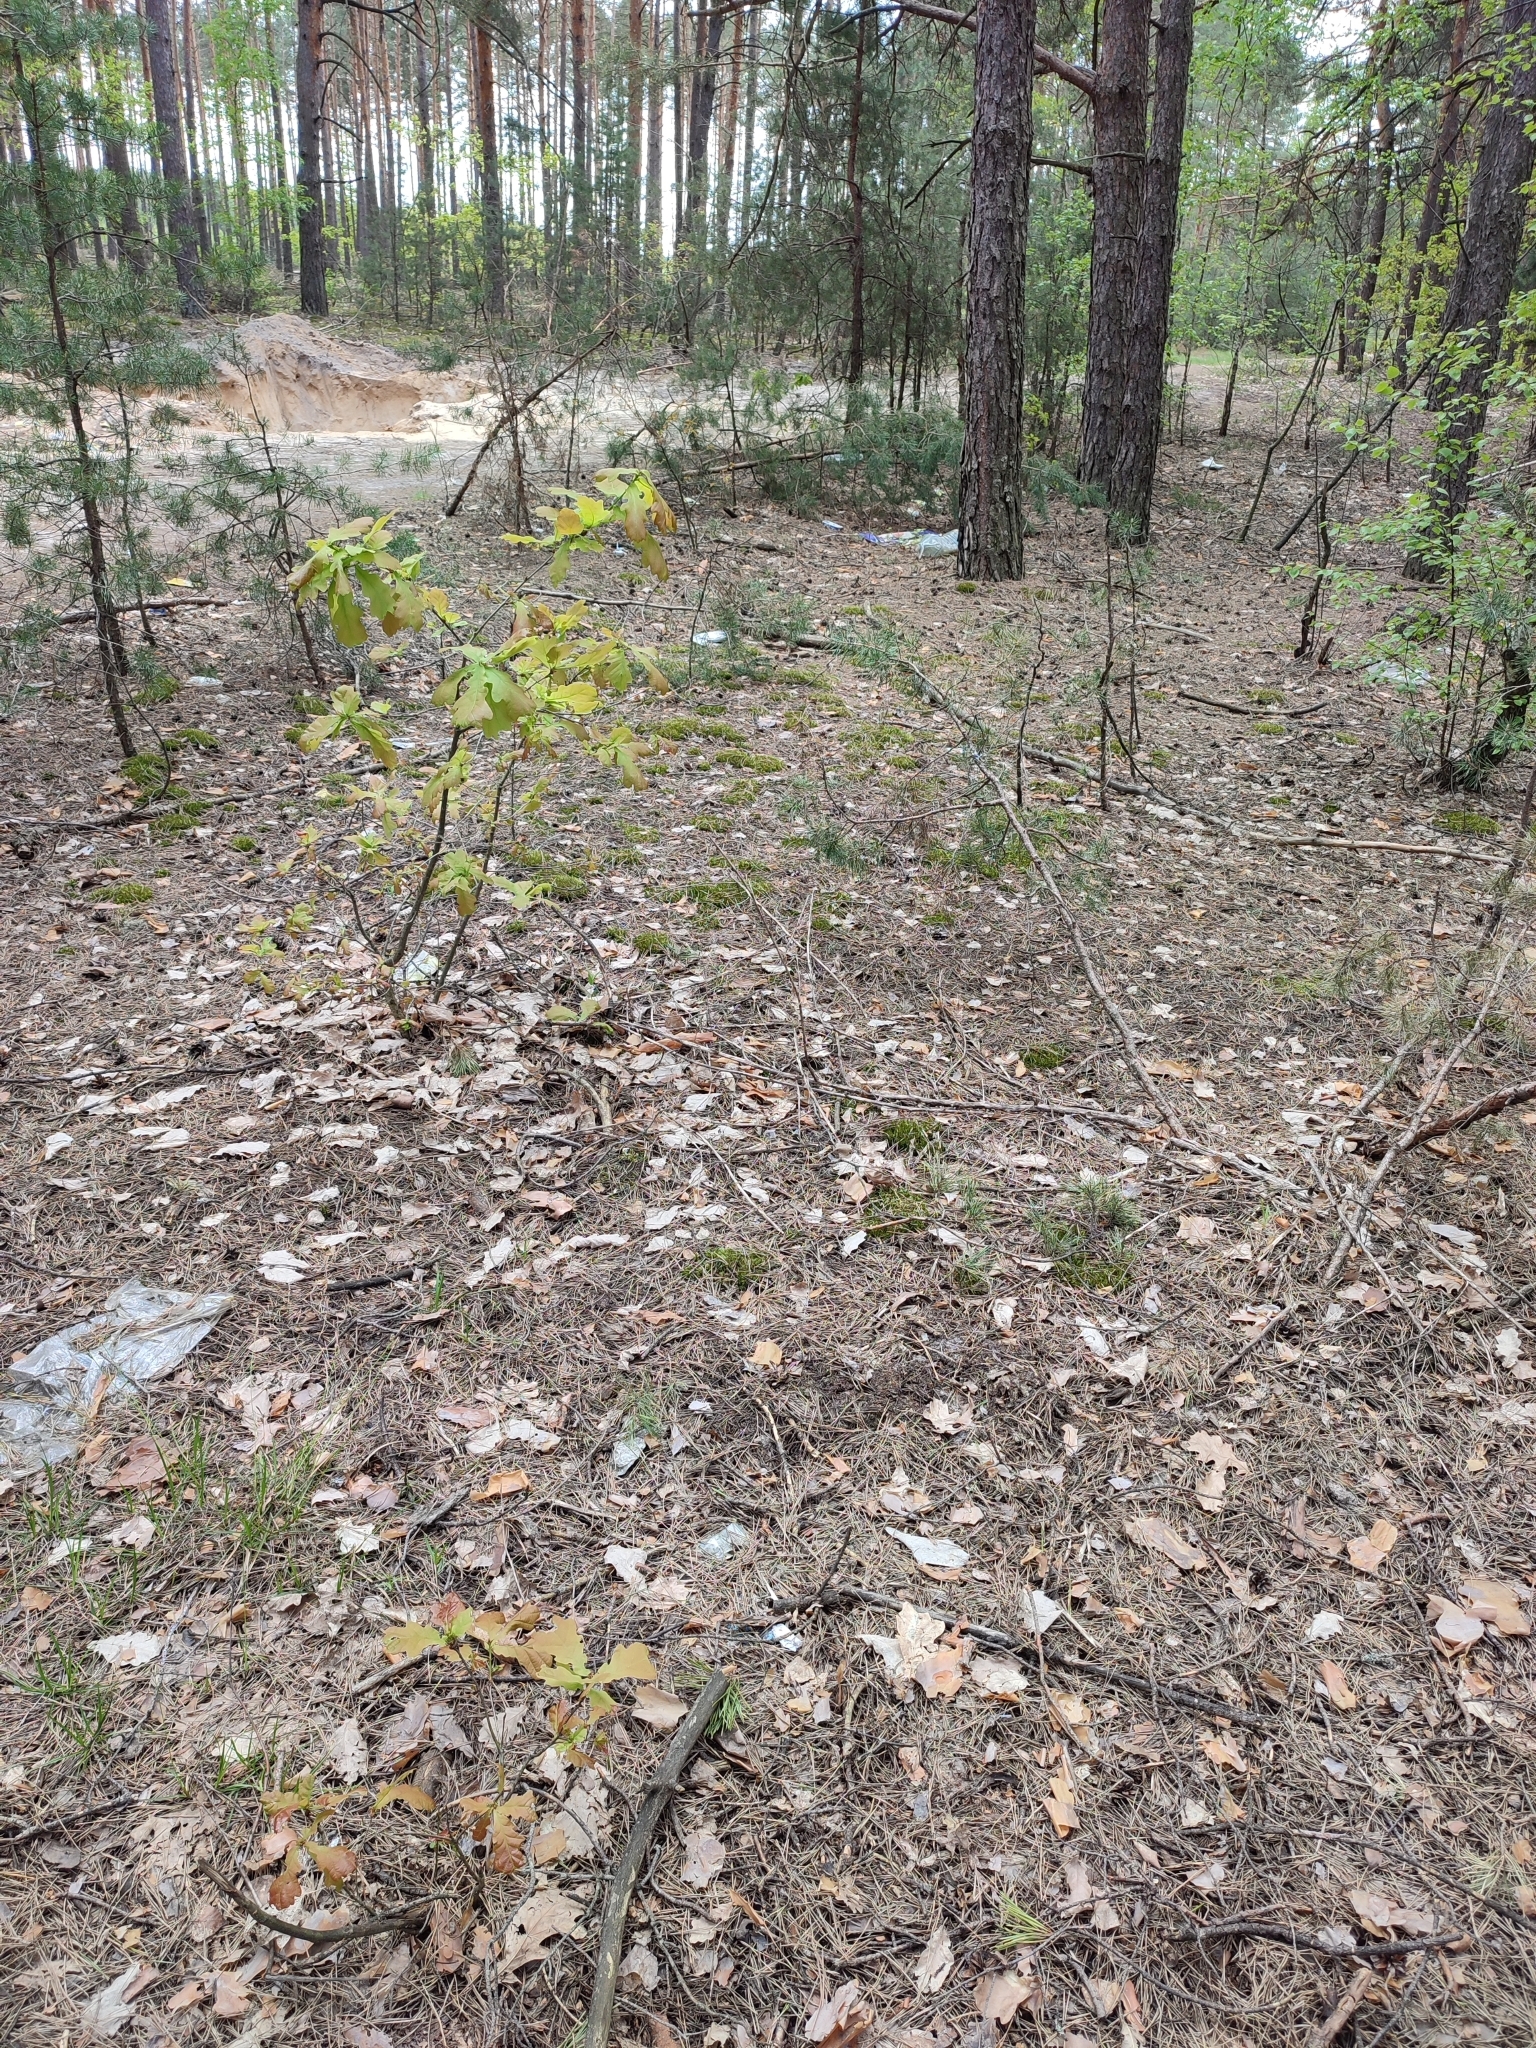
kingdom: Plantae
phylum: Tracheophyta
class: Magnoliopsida
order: Fagales
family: Fagaceae
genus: Quercus
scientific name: Quercus robur
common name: Pedunculate oak
